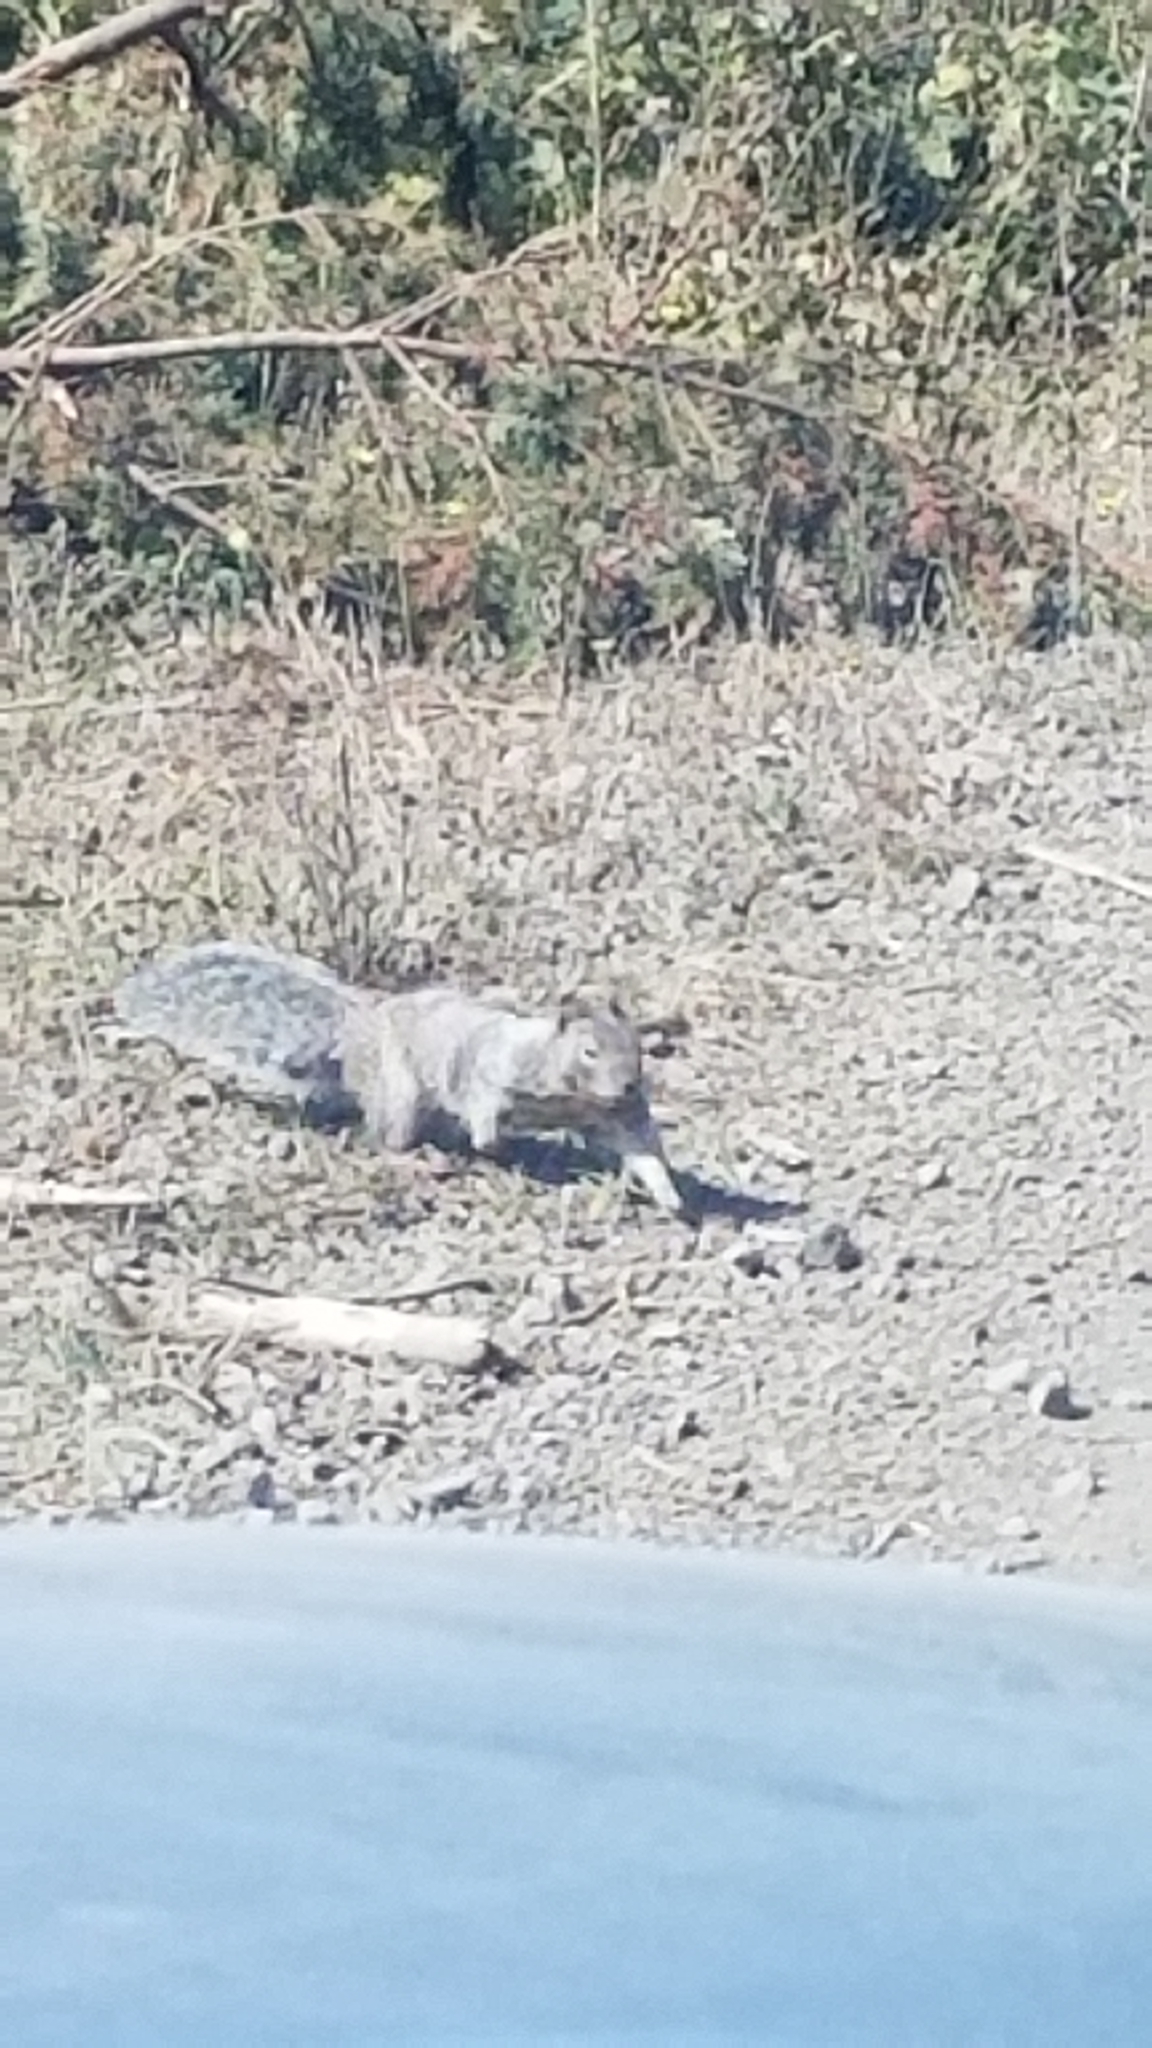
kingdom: Animalia
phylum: Chordata
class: Mammalia
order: Rodentia
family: Sciuridae
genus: Otospermophilus
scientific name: Otospermophilus beecheyi
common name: California ground squirrel
